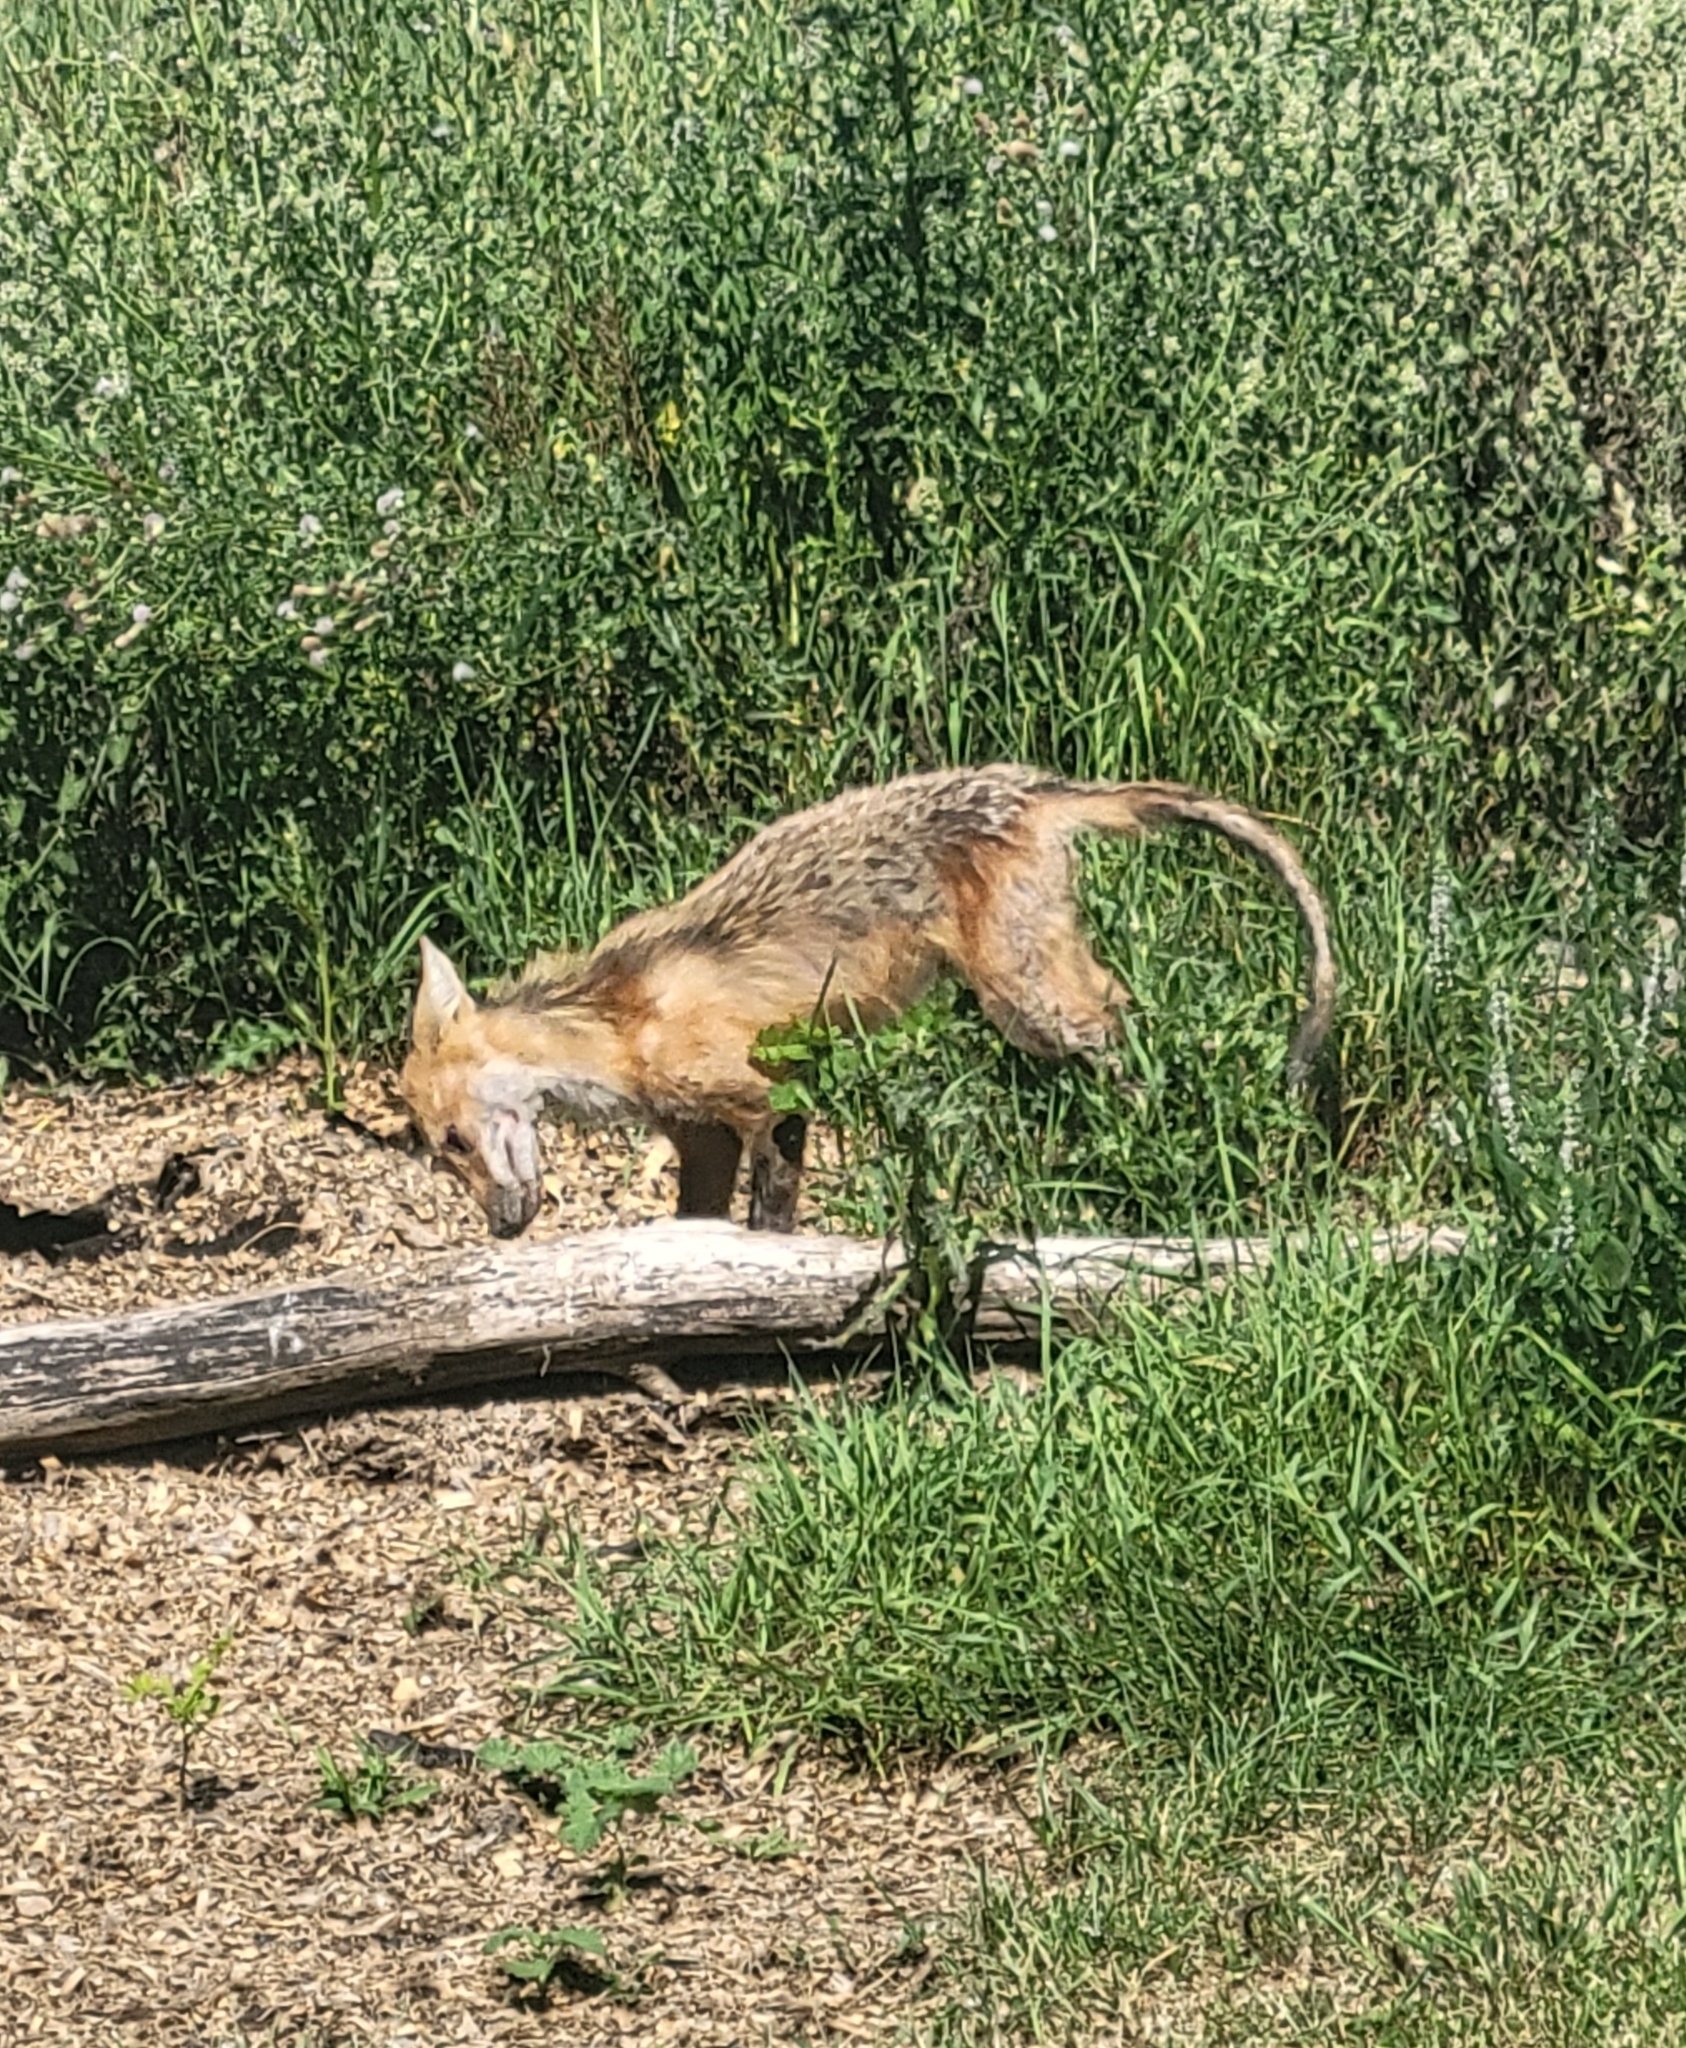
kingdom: Animalia
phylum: Chordata
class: Mammalia
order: Carnivora
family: Canidae
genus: Vulpes
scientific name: Vulpes vulpes
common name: Red fox
